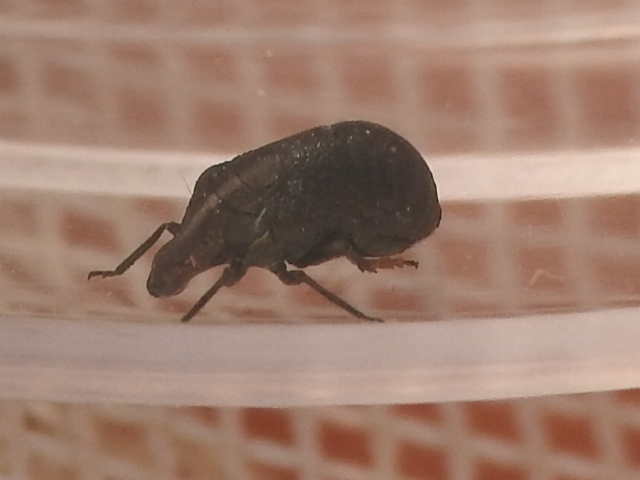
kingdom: Animalia
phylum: Arthropoda
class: Insecta
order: Hemiptera
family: Caliscelidae
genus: Bruchomorpha
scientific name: Bruchomorpha nodosa
